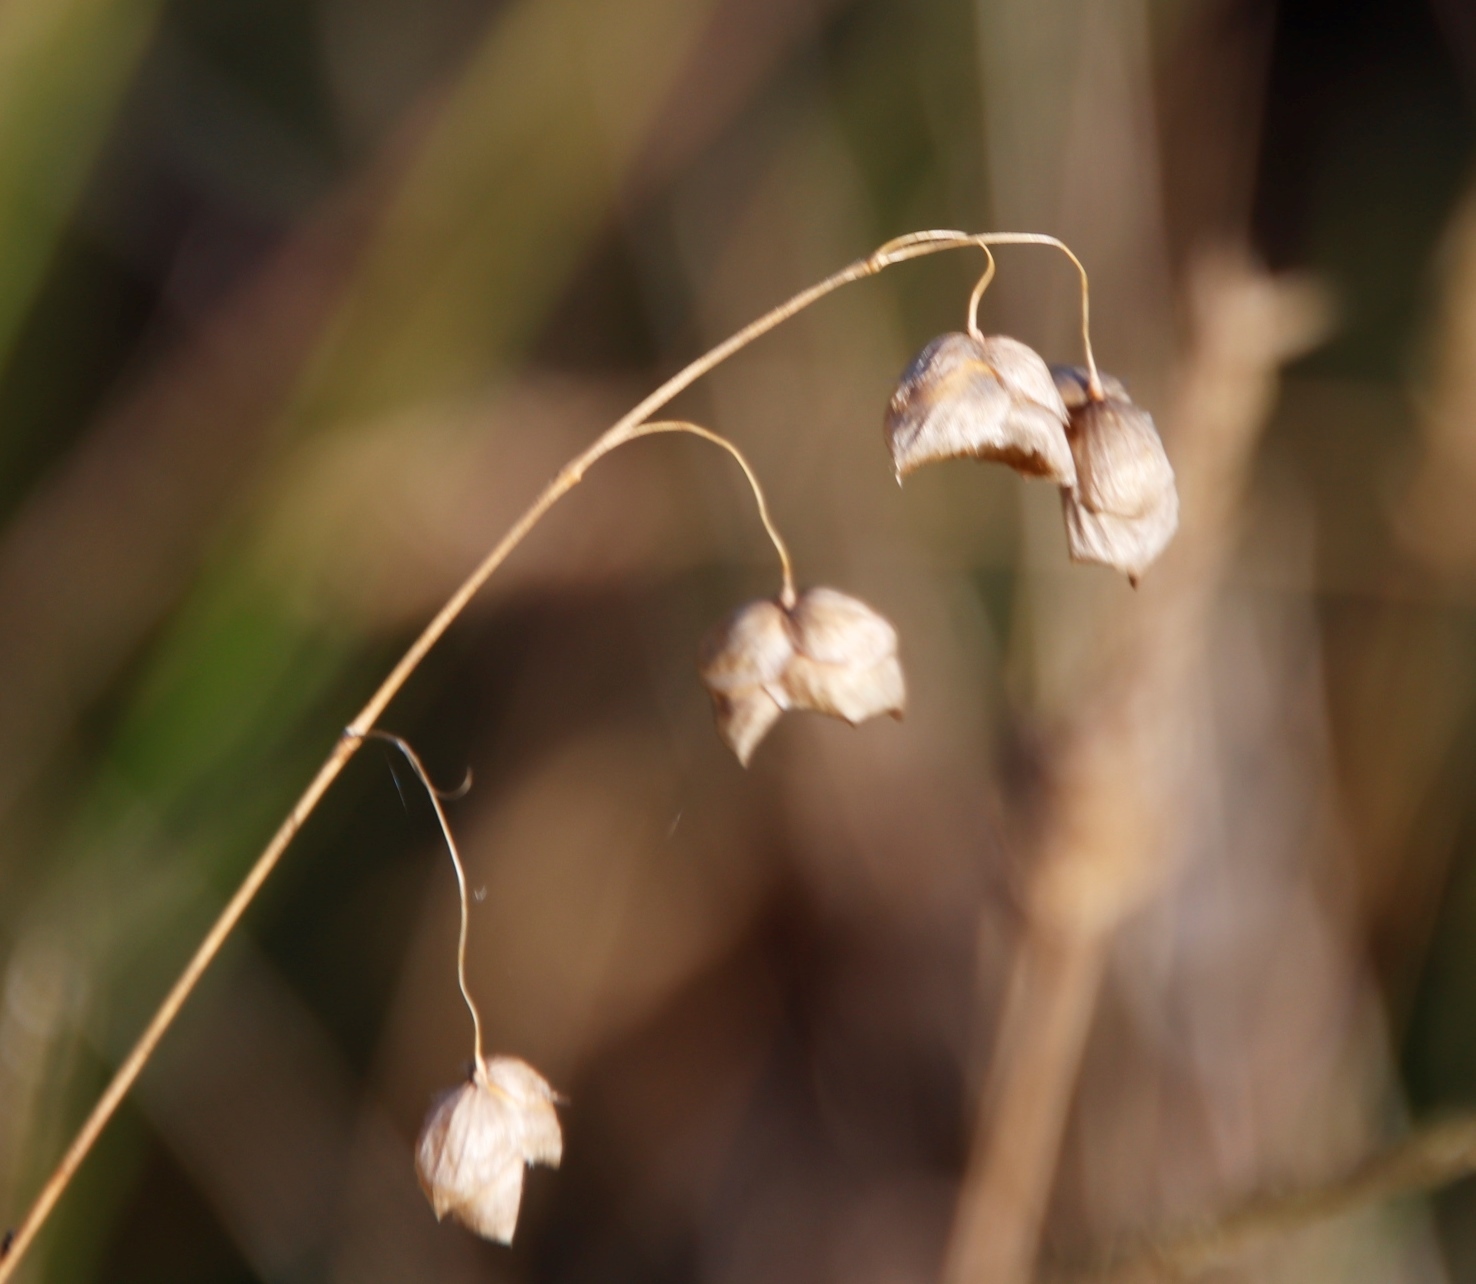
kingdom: Plantae
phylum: Tracheophyta
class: Liliopsida
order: Poales
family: Poaceae
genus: Briza
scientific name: Briza maxima
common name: Big quakinggrass
